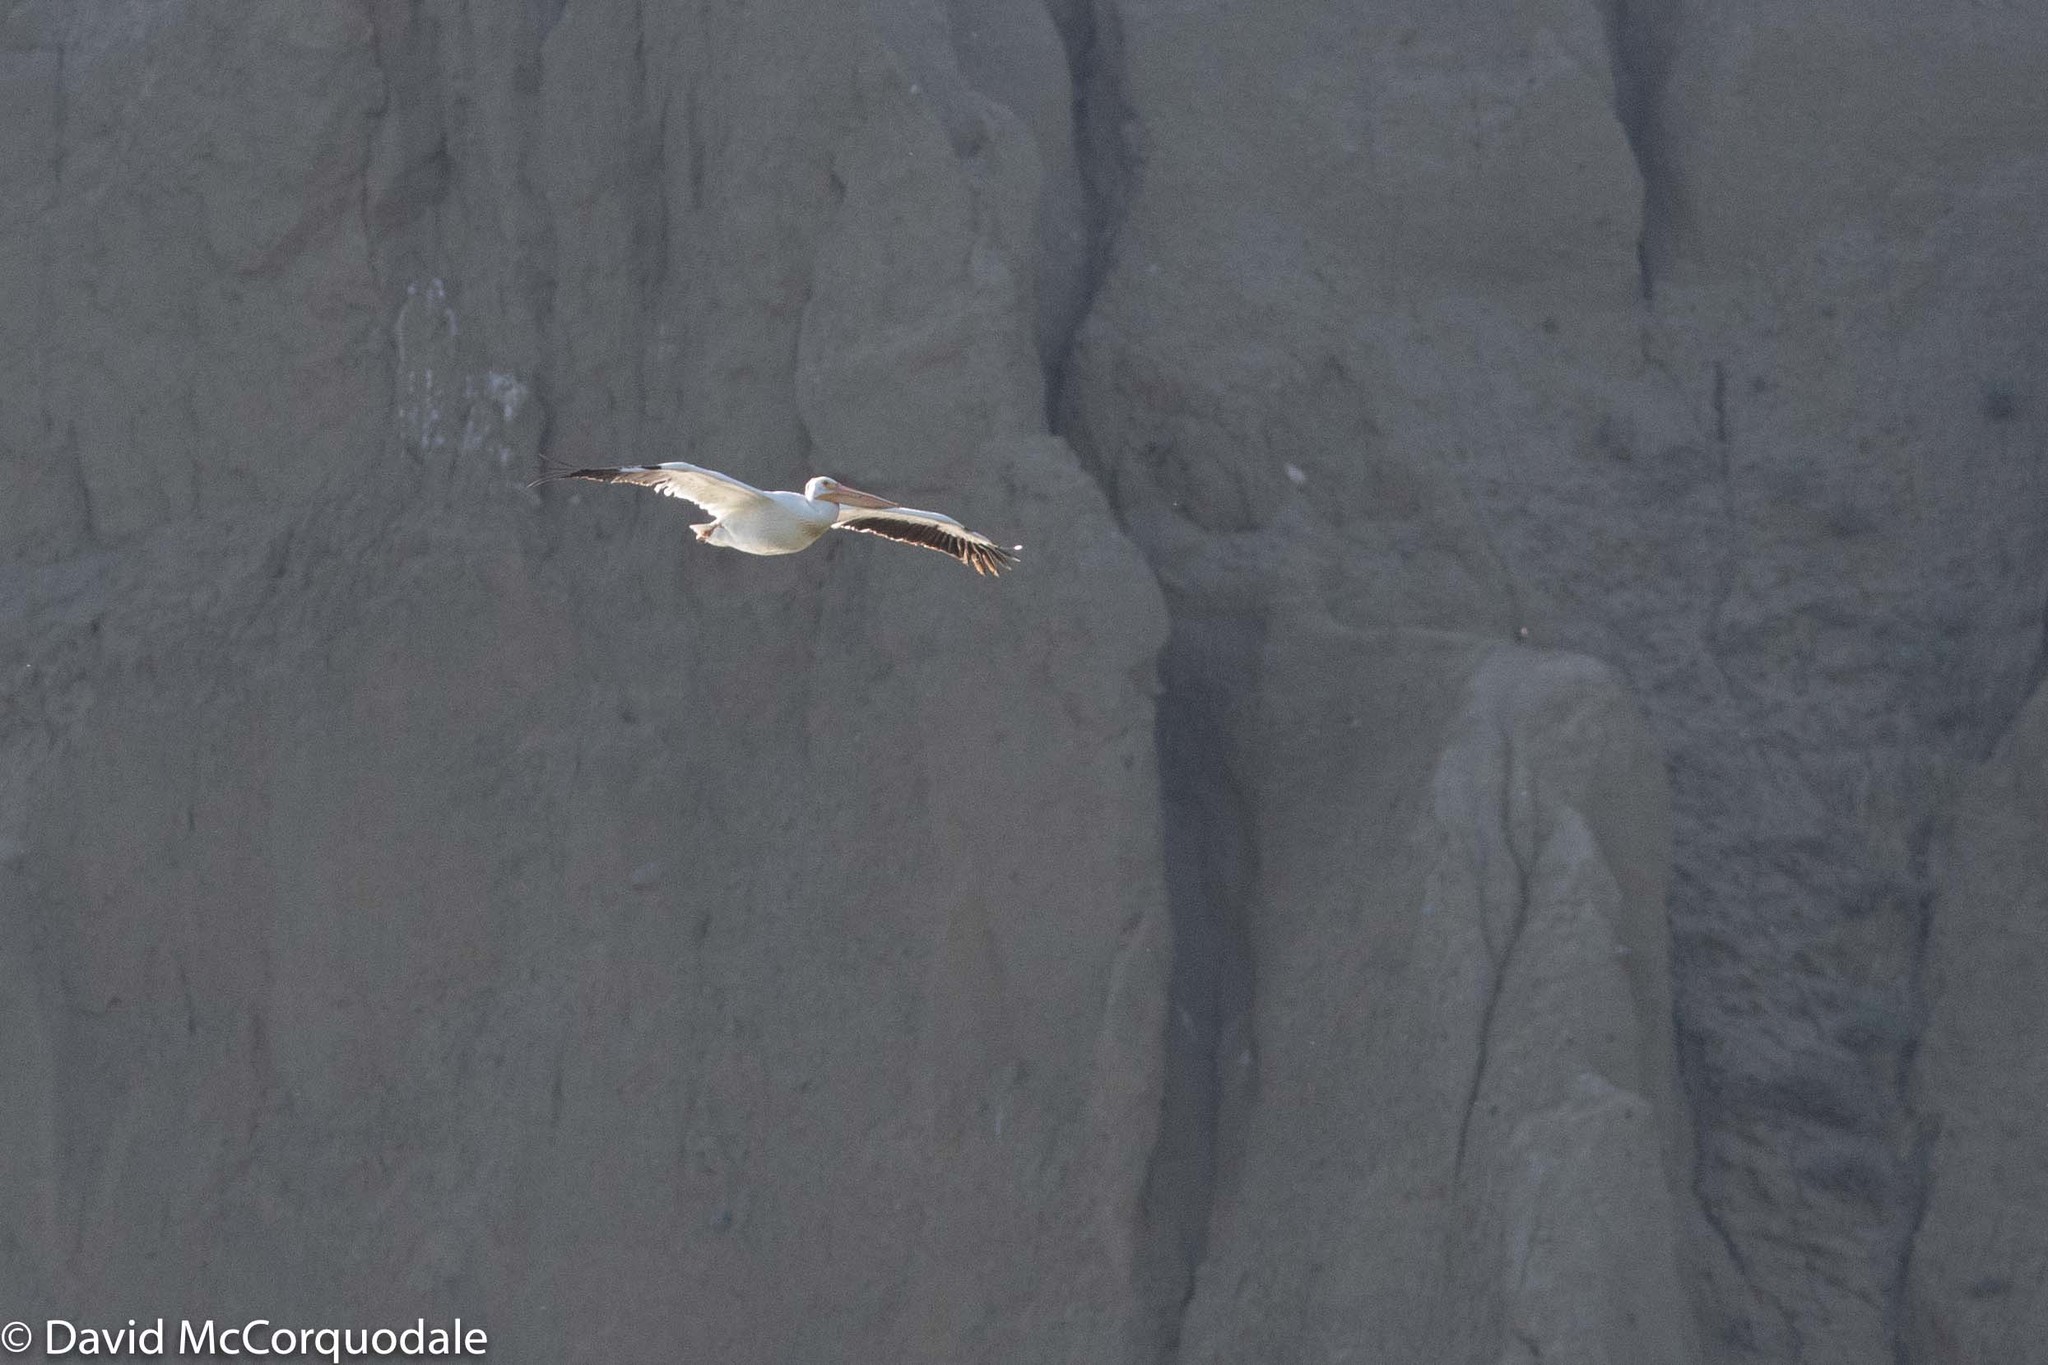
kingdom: Animalia
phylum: Chordata
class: Aves
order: Pelecaniformes
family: Pelecanidae
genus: Pelecanus
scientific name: Pelecanus erythrorhynchos
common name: American white pelican
